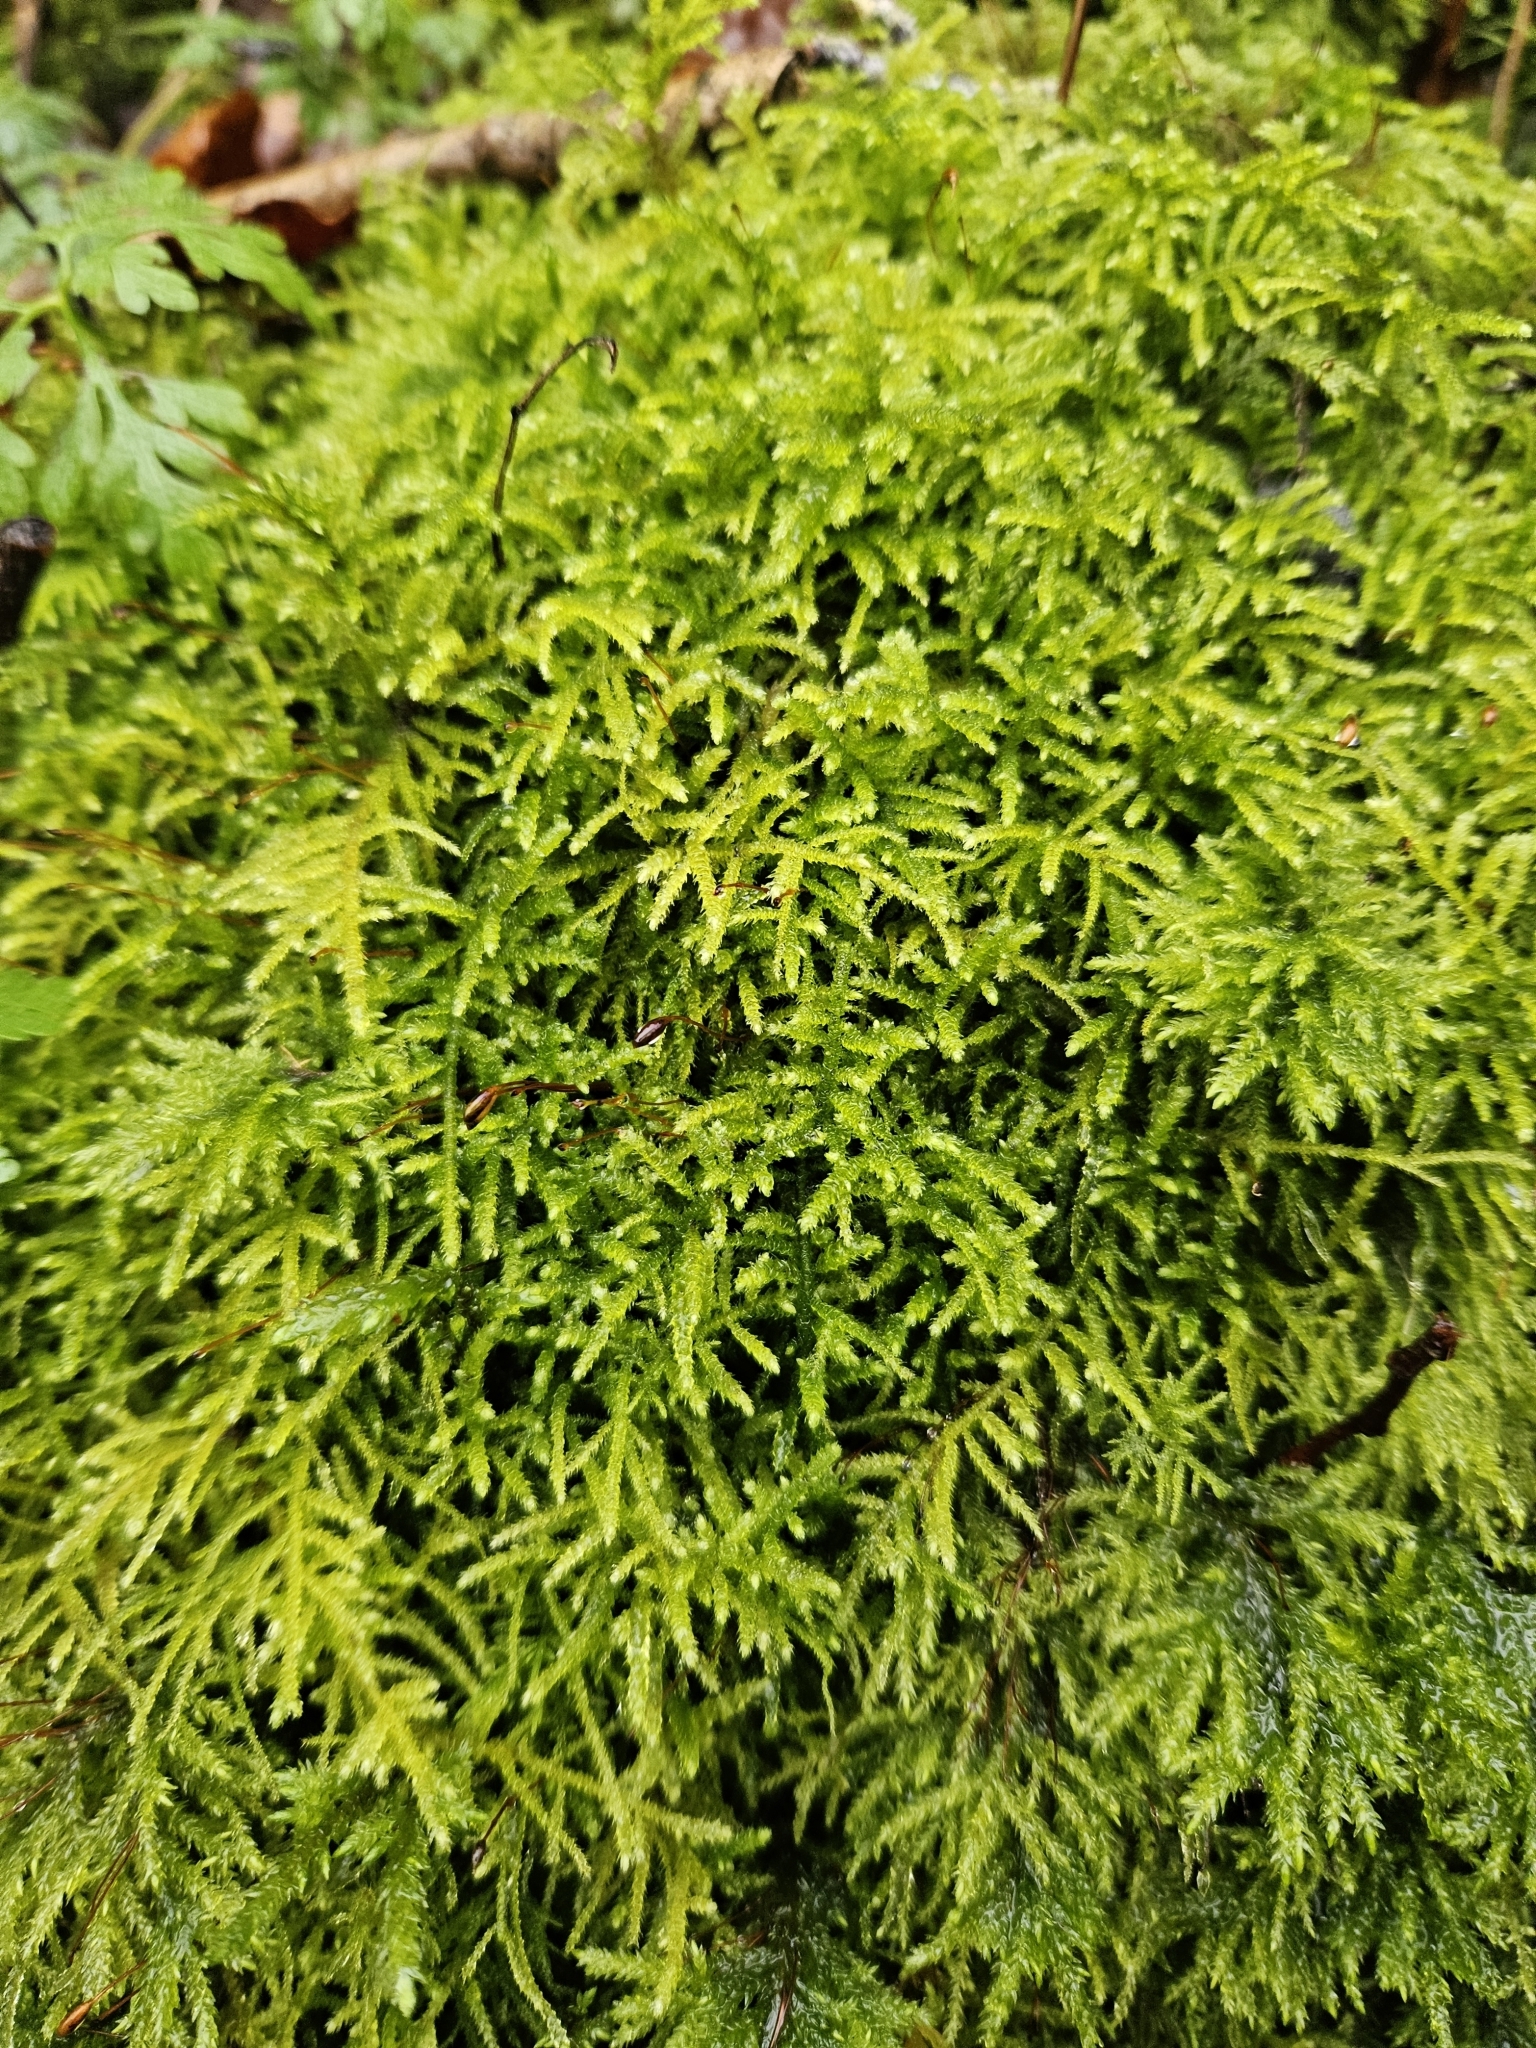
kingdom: Plantae
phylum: Bryophyta
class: Bryopsida
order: Hypnales
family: Brachytheciaceae
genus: Eurhynchium
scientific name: Eurhynchium striatum
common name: Common striated feather-moss
